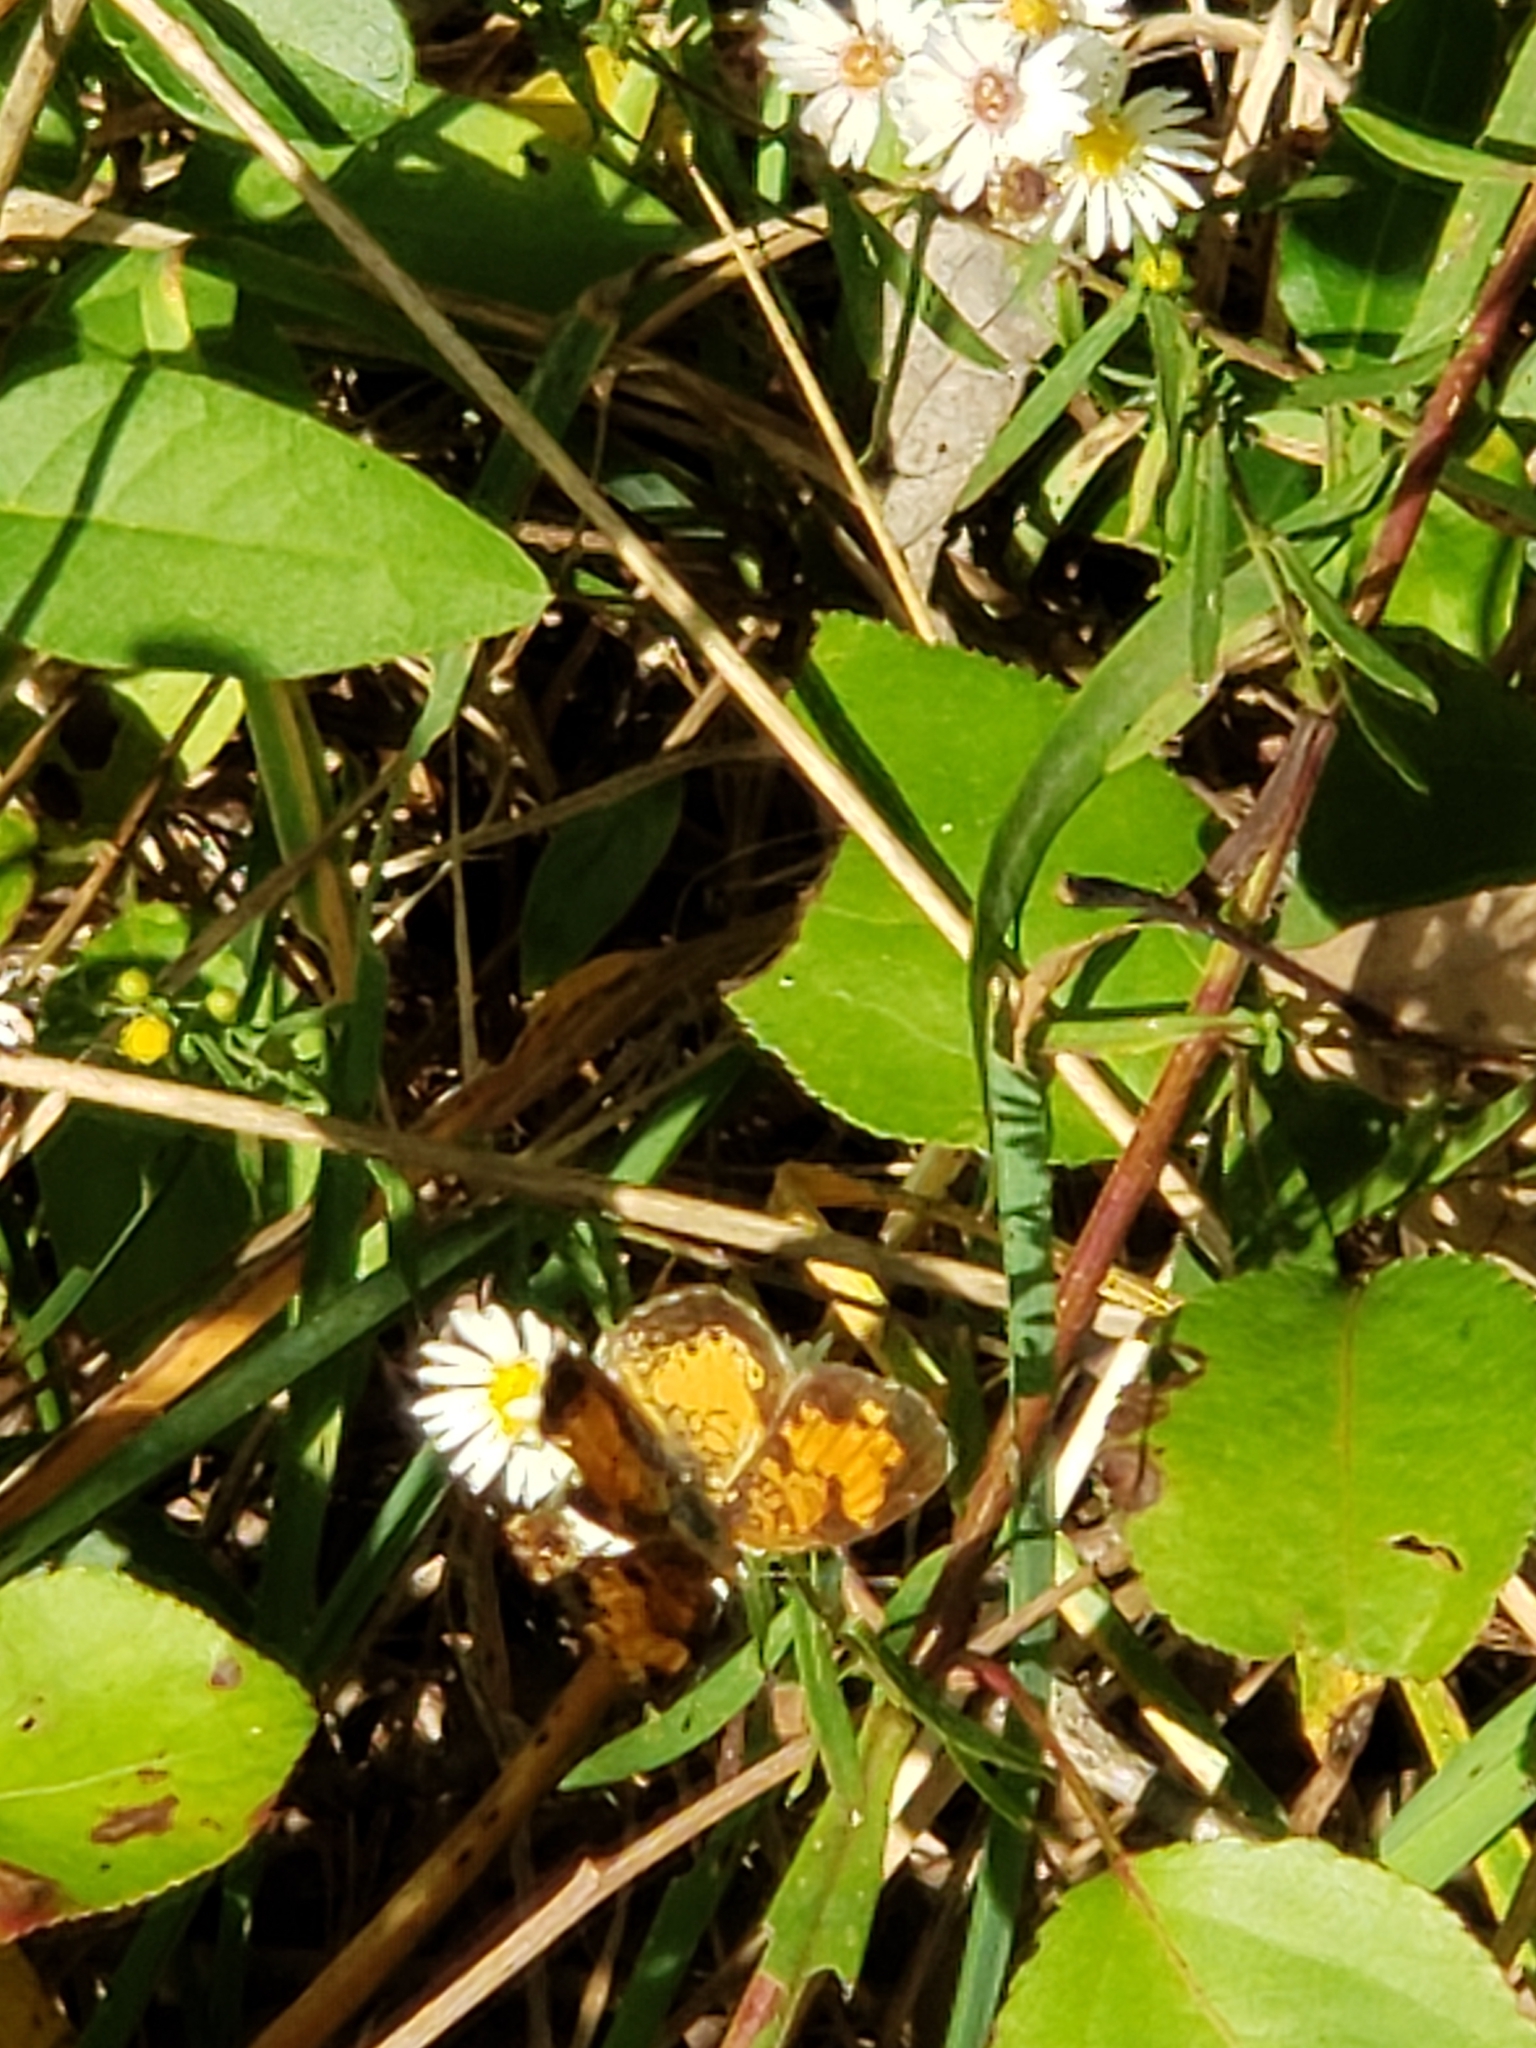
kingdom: Animalia
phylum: Arthropoda
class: Insecta
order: Lepidoptera
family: Nymphalidae
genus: Phyciodes
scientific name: Phyciodes tharos
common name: Pearl crescent
